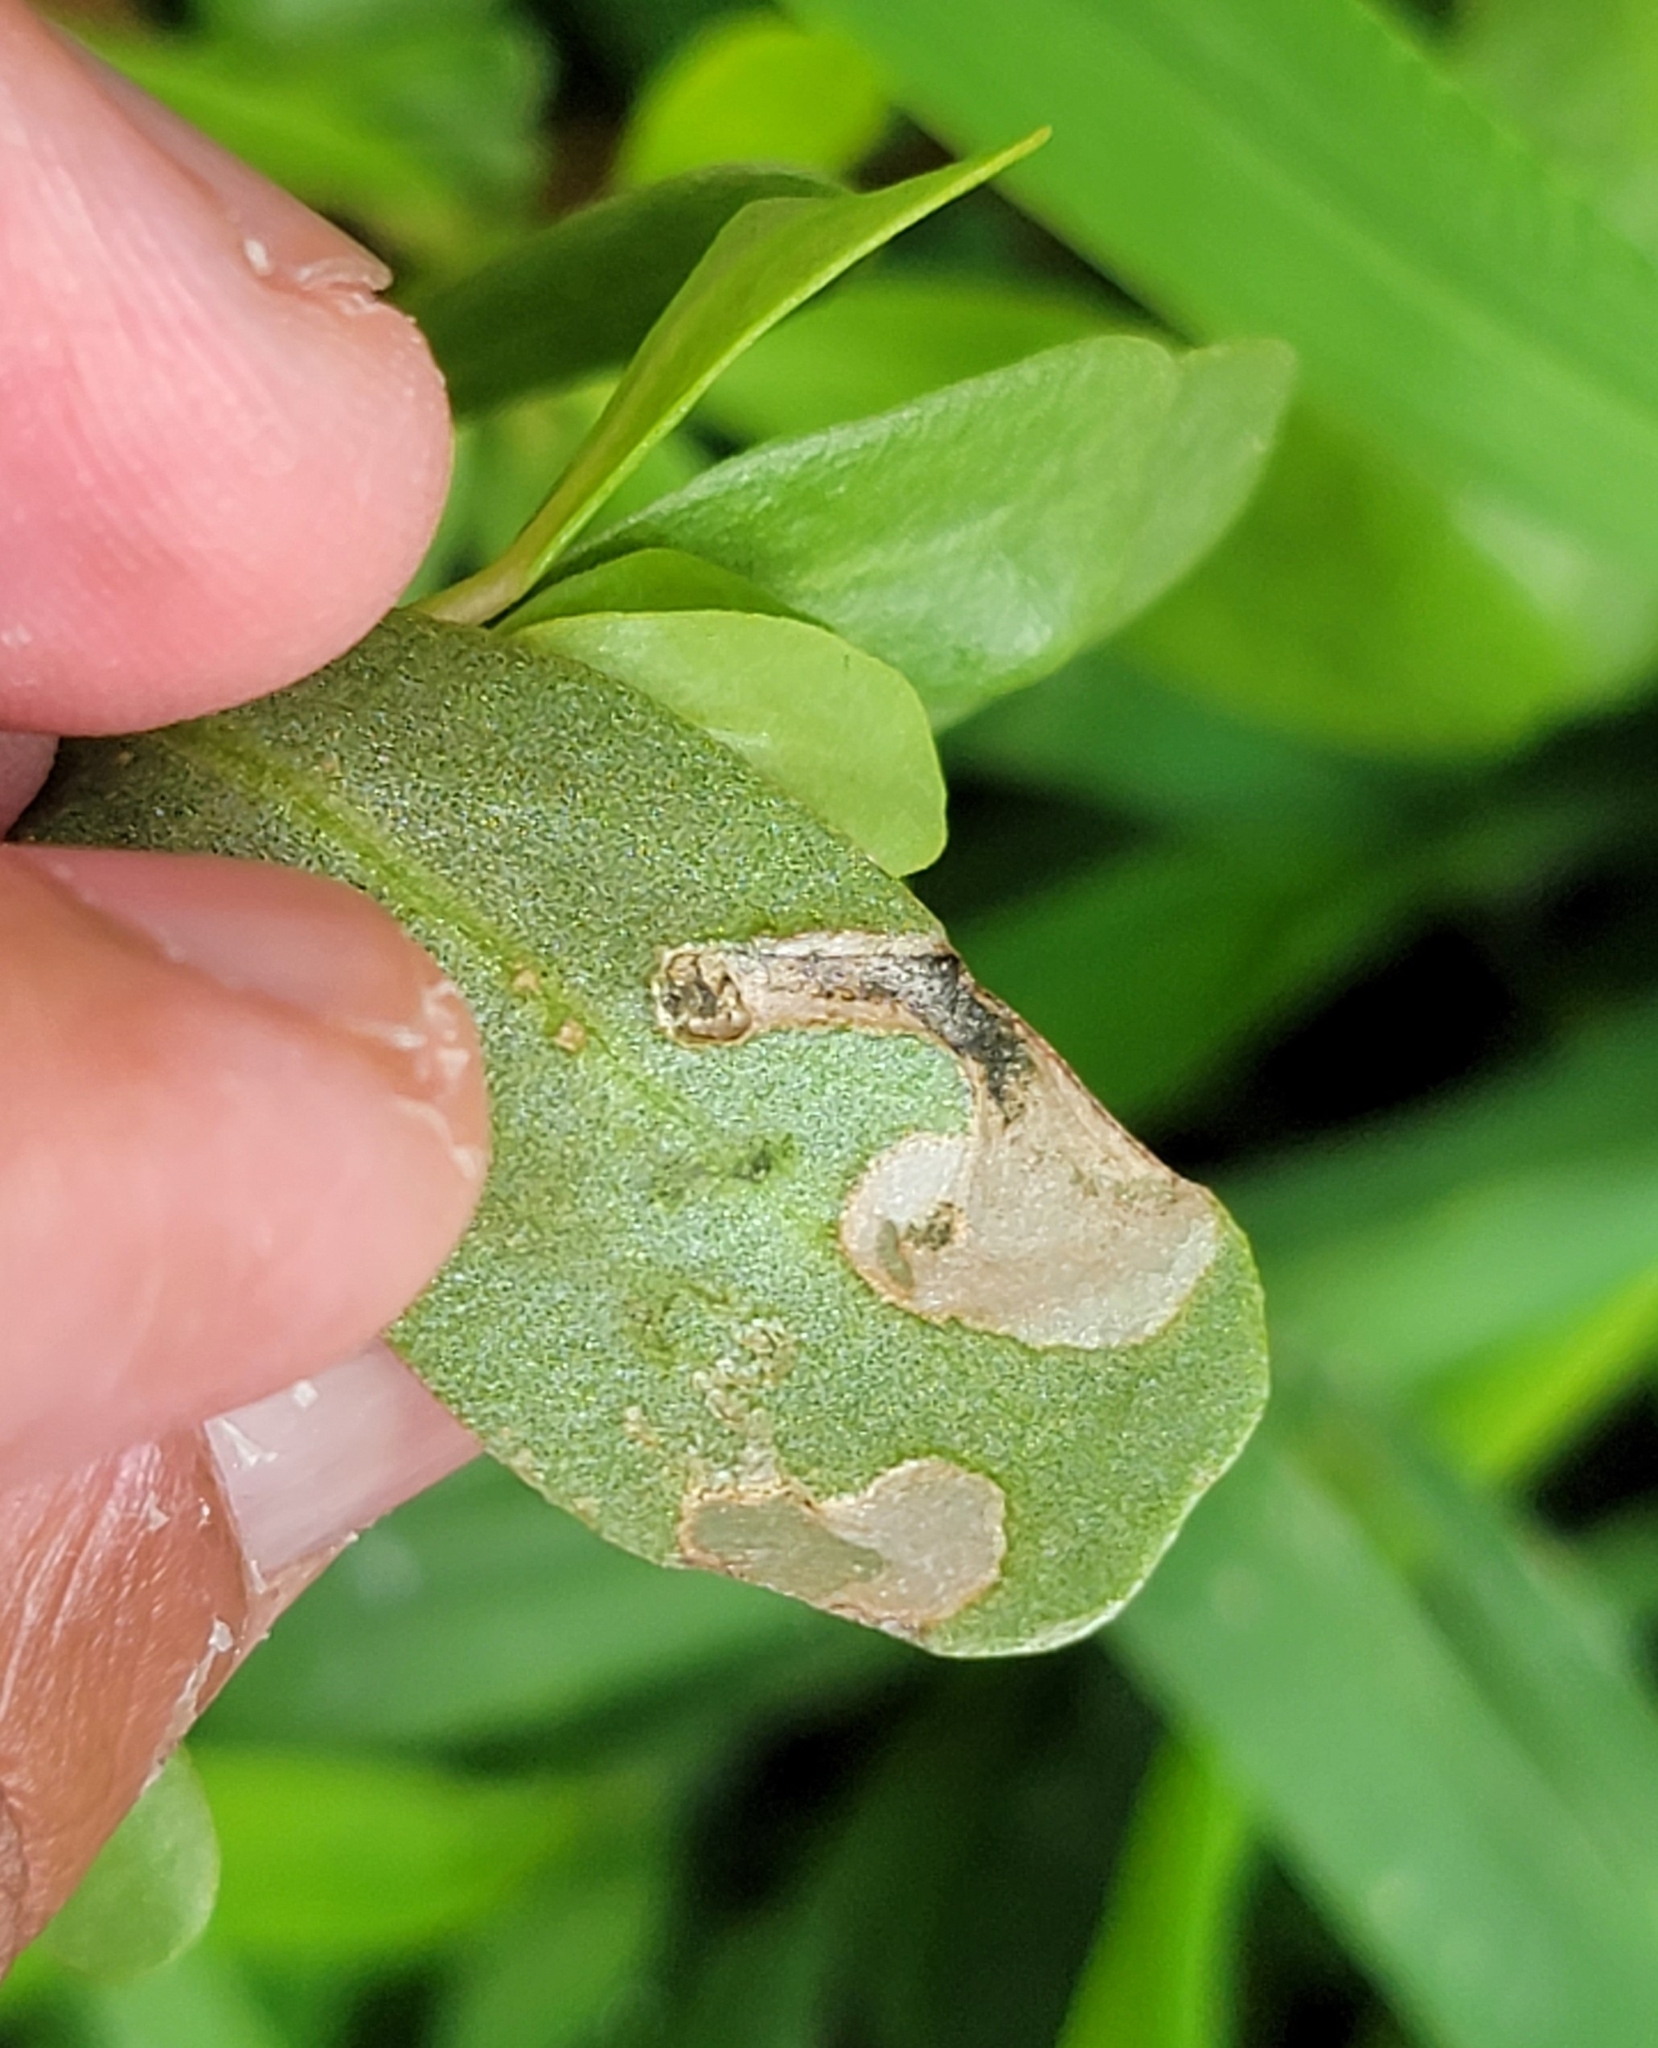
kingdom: Animalia
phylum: Arthropoda
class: Insecta
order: Hymenoptera
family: Argidae
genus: Schizocerella
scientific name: Schizocerella pilicornis
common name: Purslane sawfly
